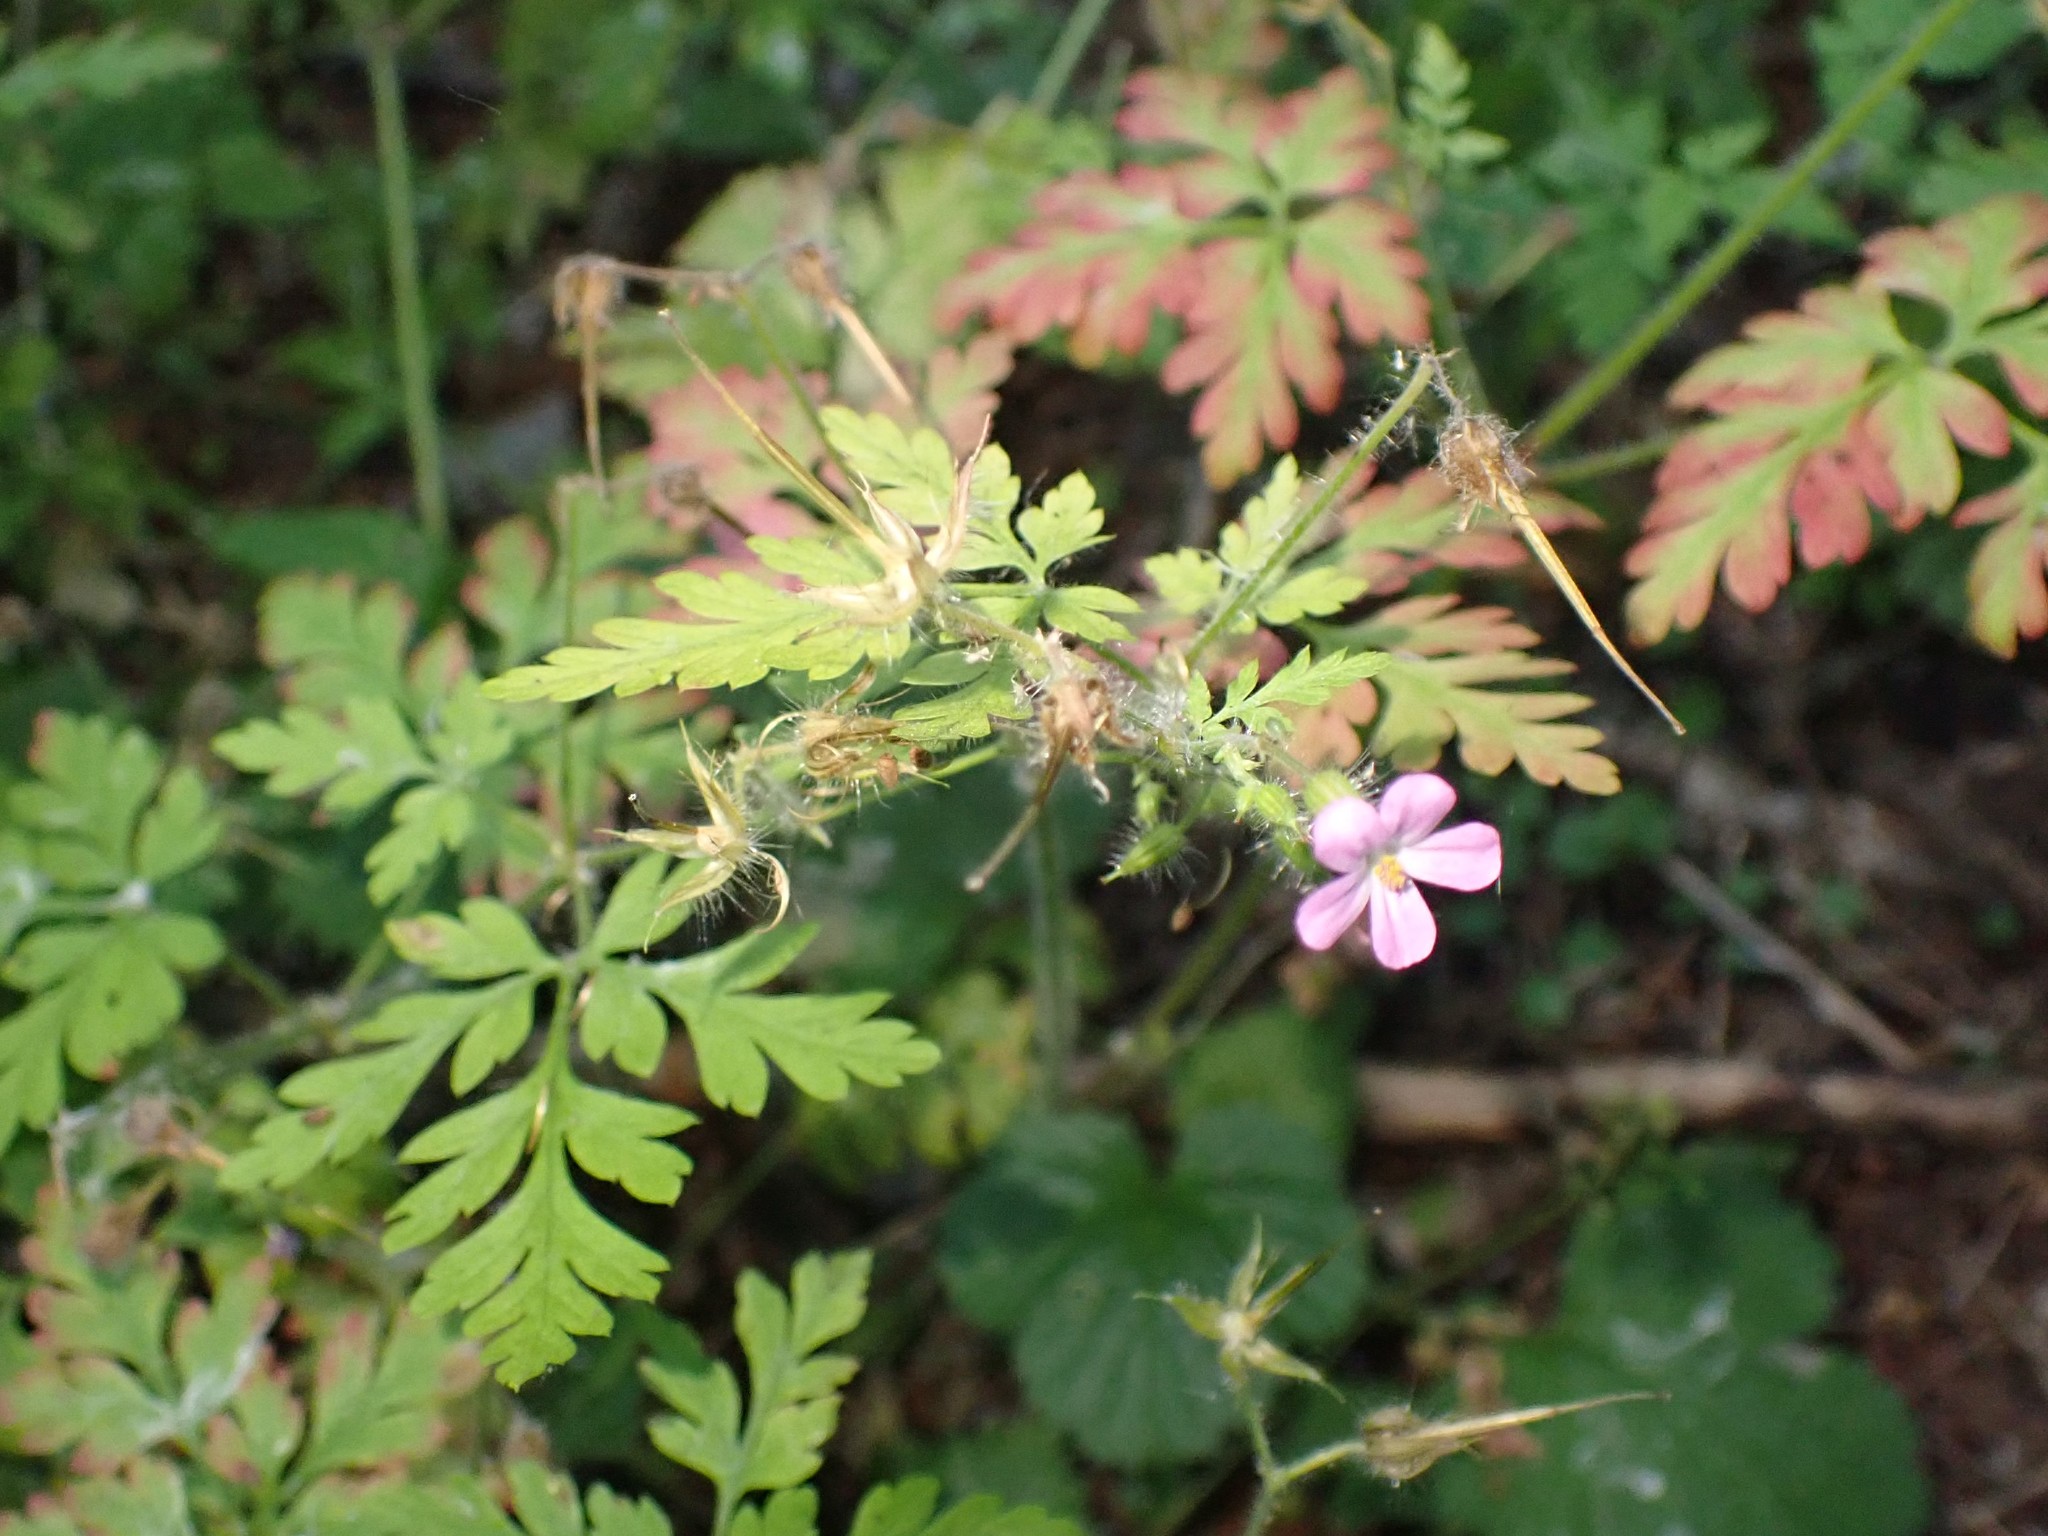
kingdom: Plantae
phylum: Tracheophyta
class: Magnoliopsida
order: Geraniales
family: Geraniaceae
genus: Geranium
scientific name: Geranium robertianum
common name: Herb-robert
